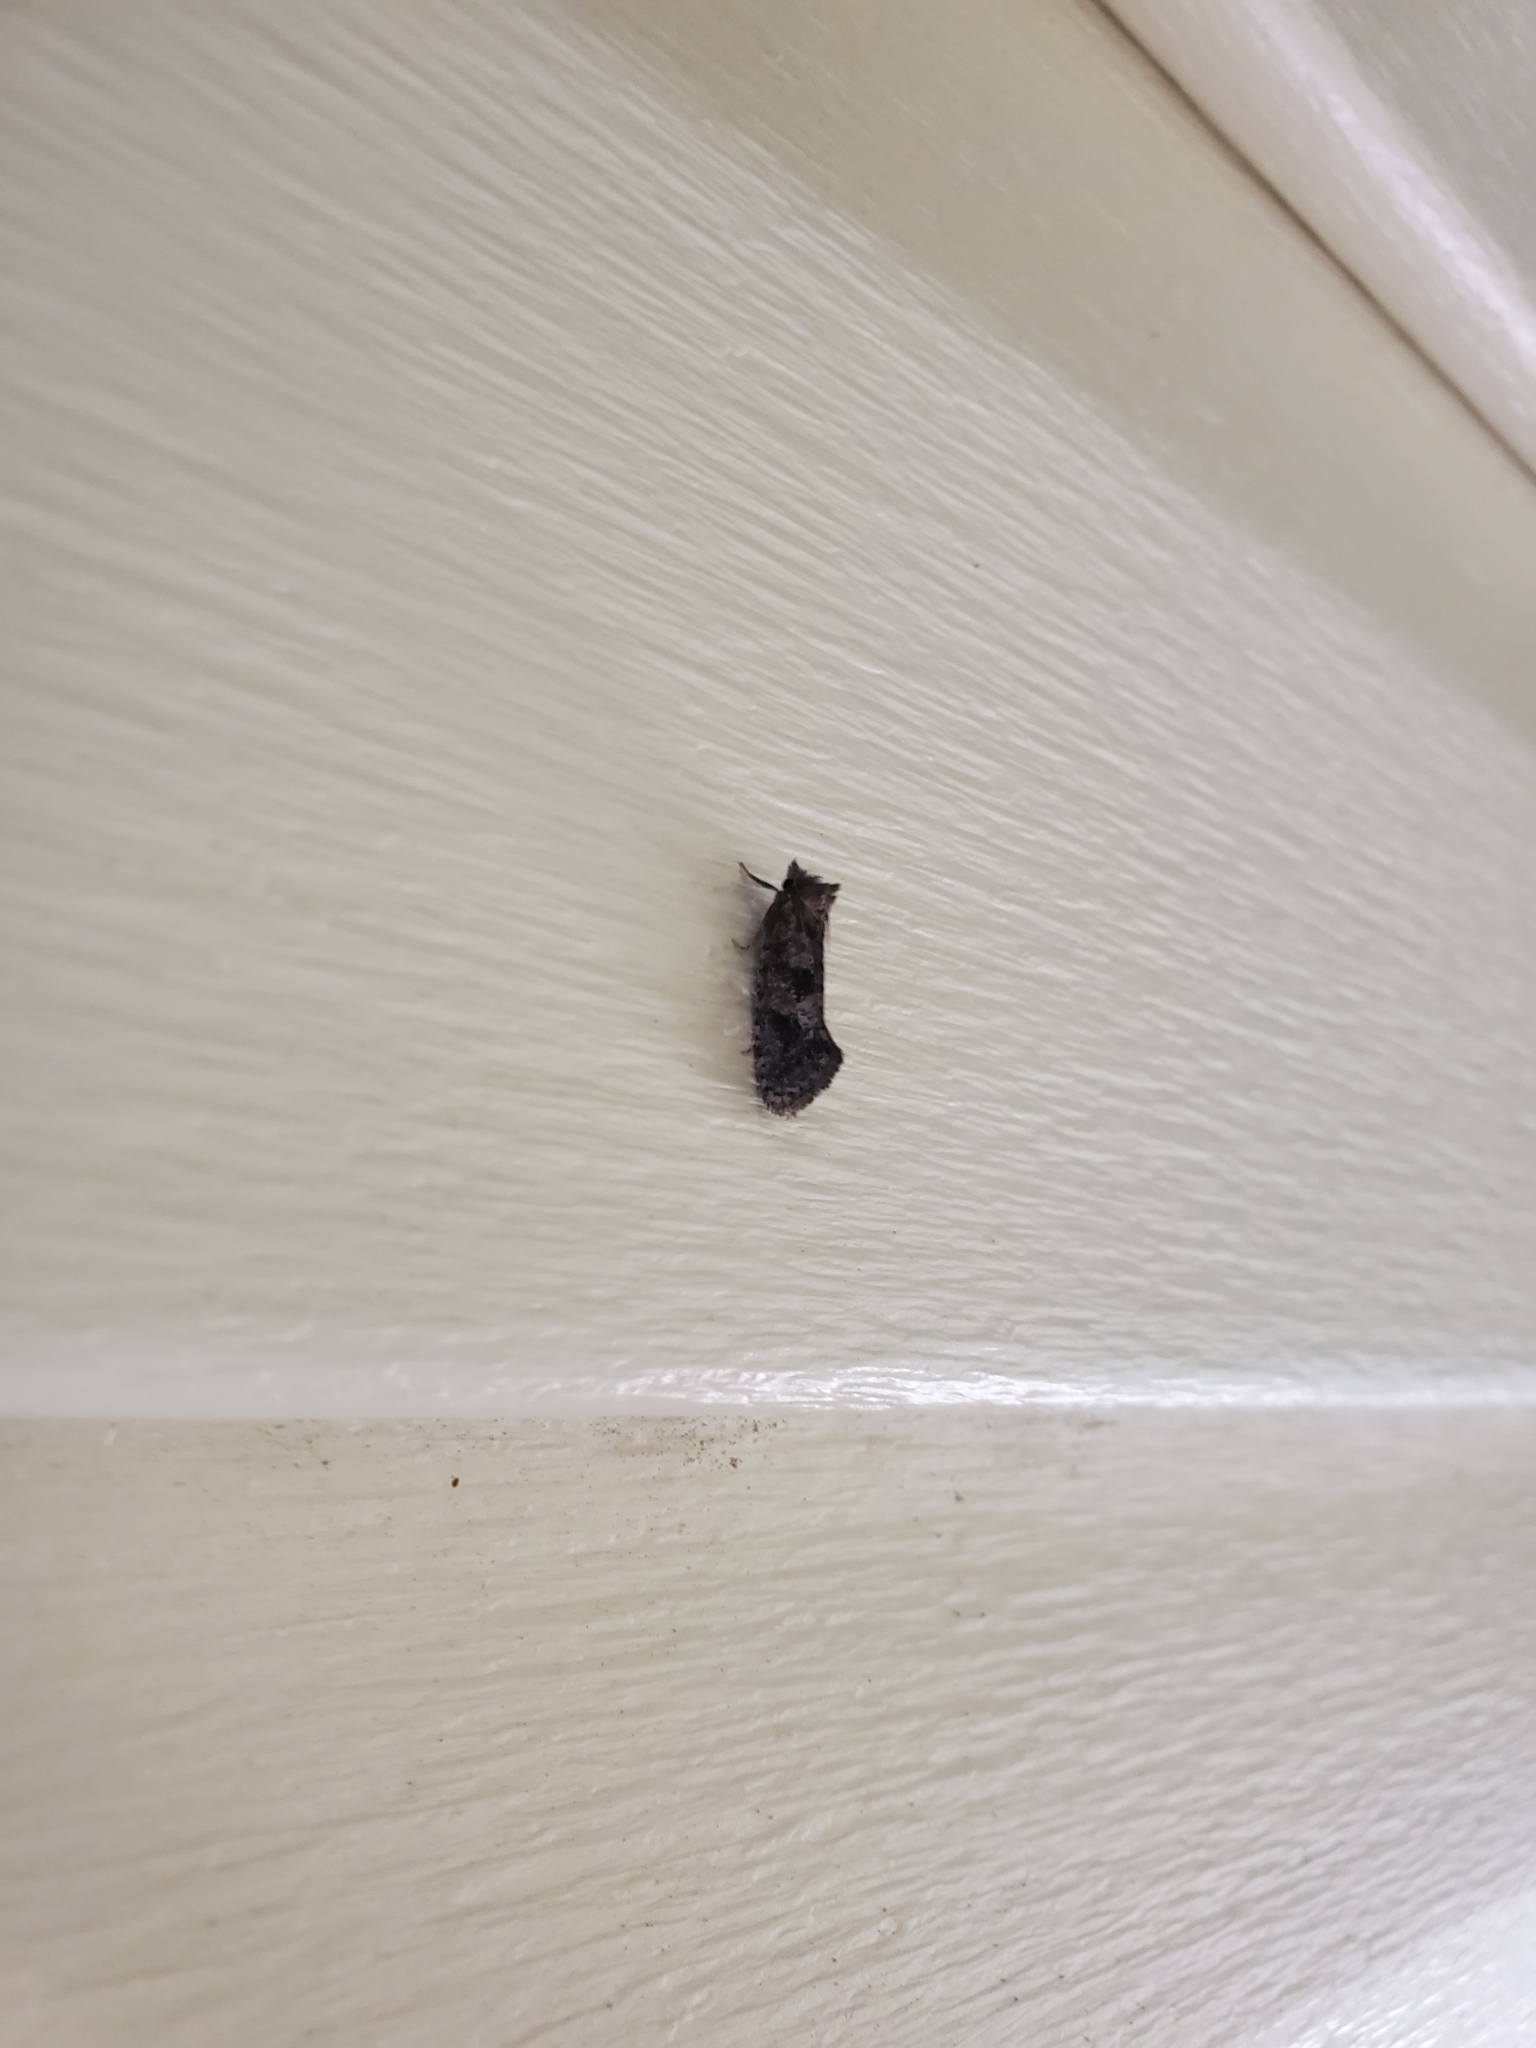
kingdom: Animalia
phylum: Arthropoda
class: Insecta
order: Lepidoptera
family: Tineidae
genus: Acrolophus
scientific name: Acrolophus texanella
